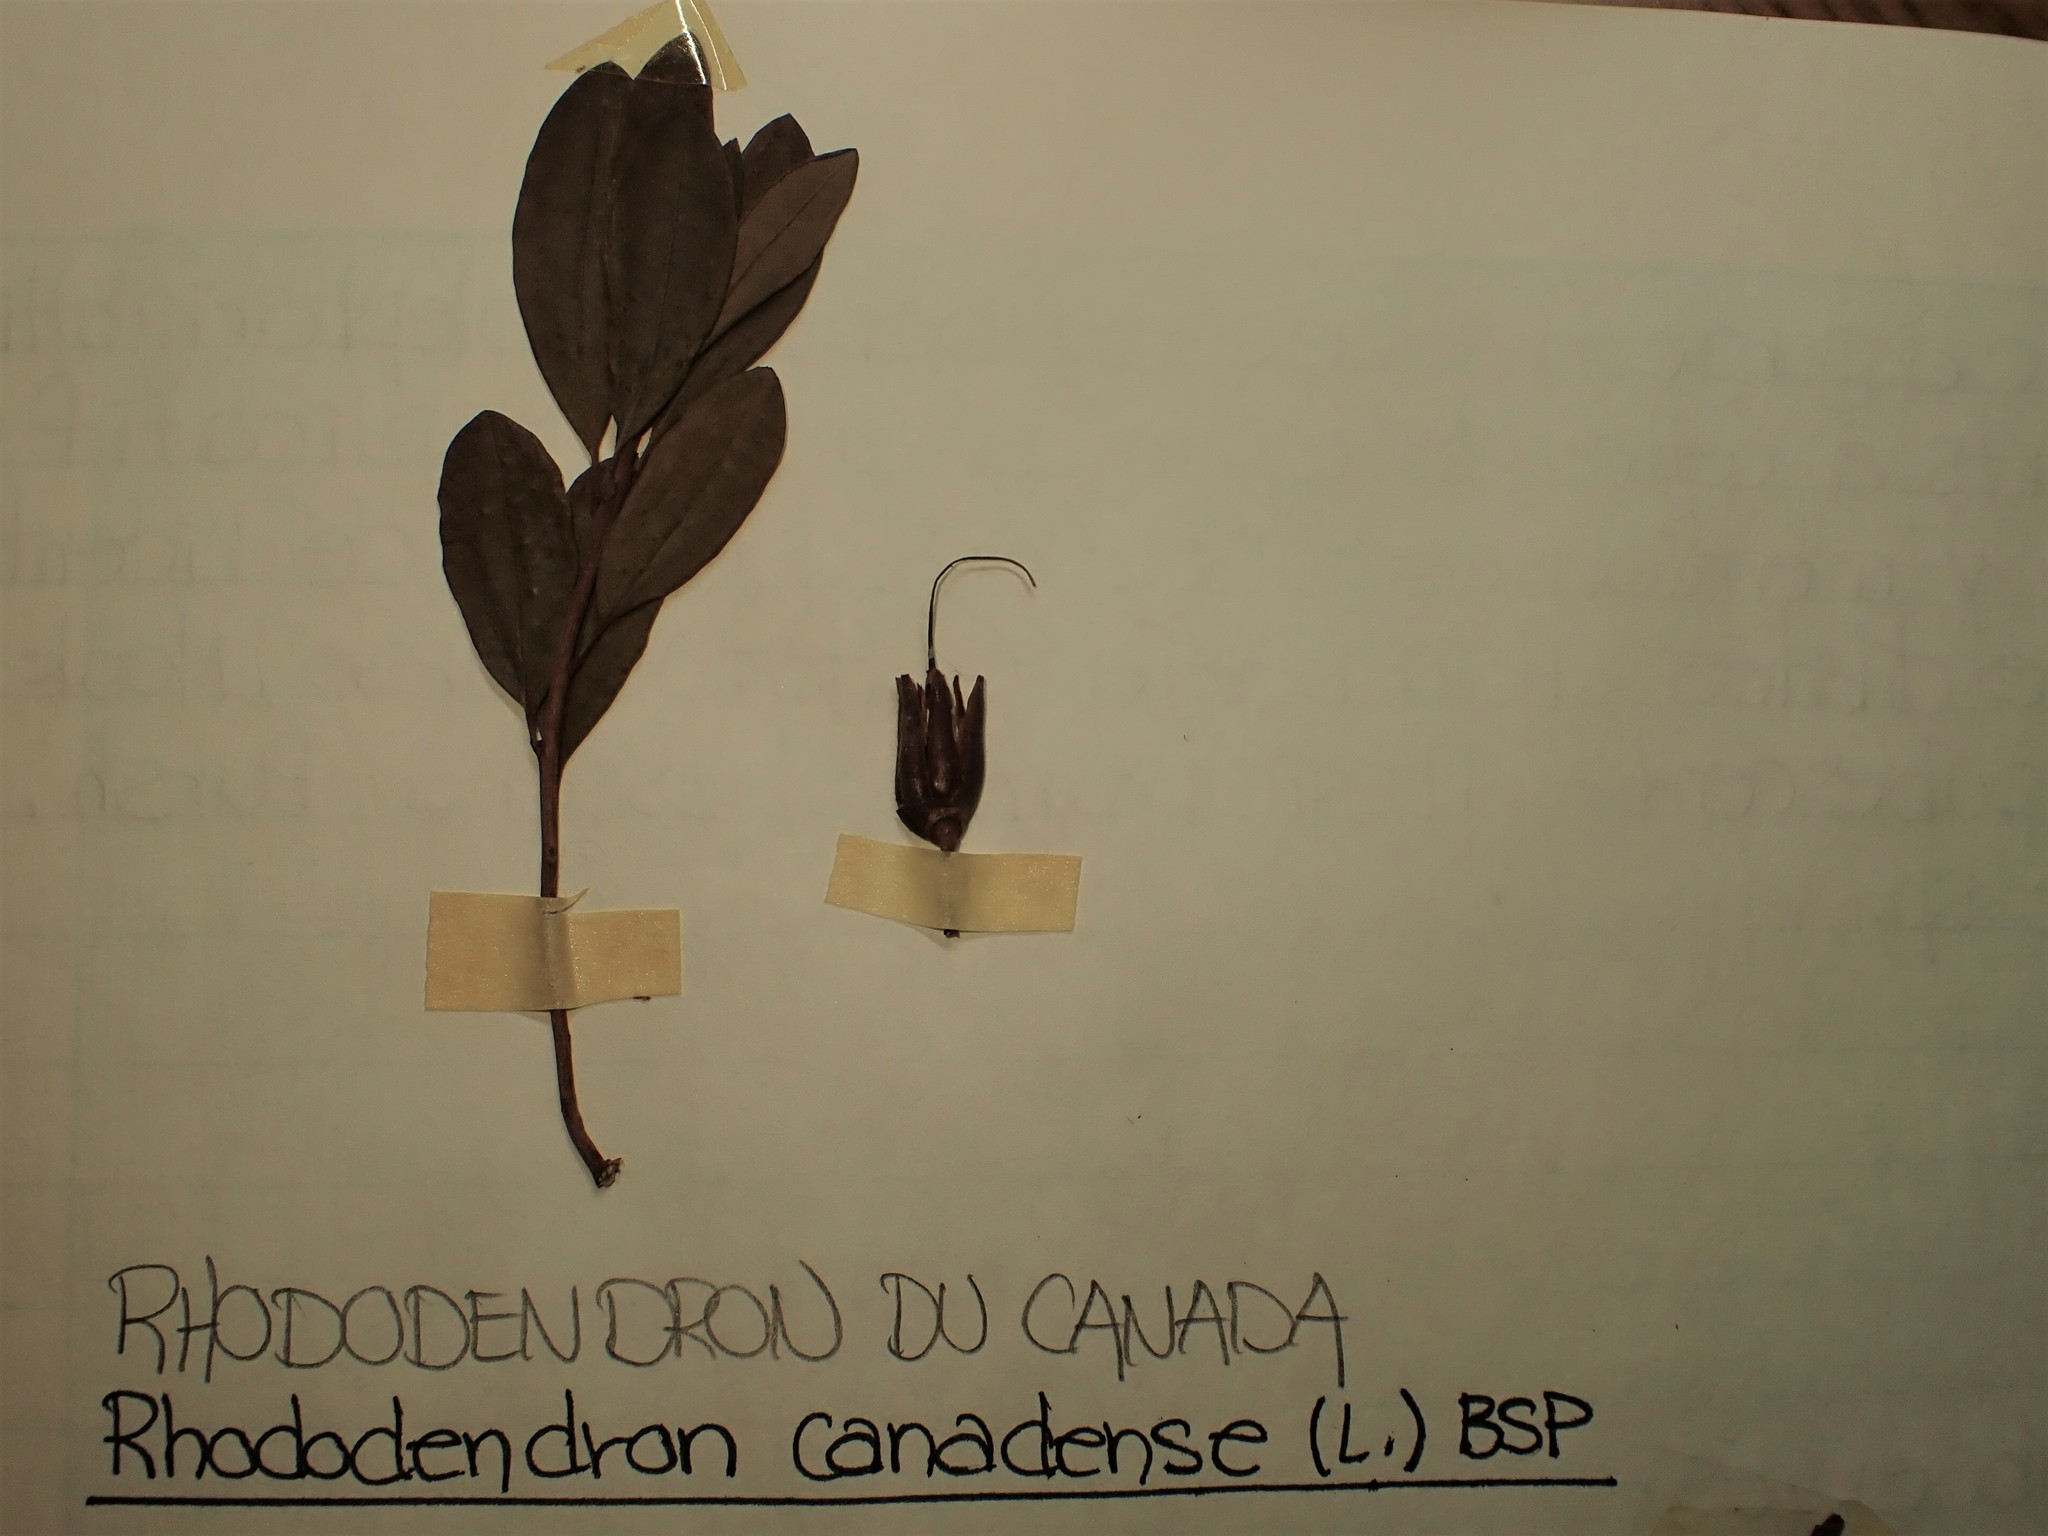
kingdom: Plantae
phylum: Tracheophyta
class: Magnoliopsida
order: Ericales
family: Ericaceae
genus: Rhododendron
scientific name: Rhododendron canadense
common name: Rhodora
